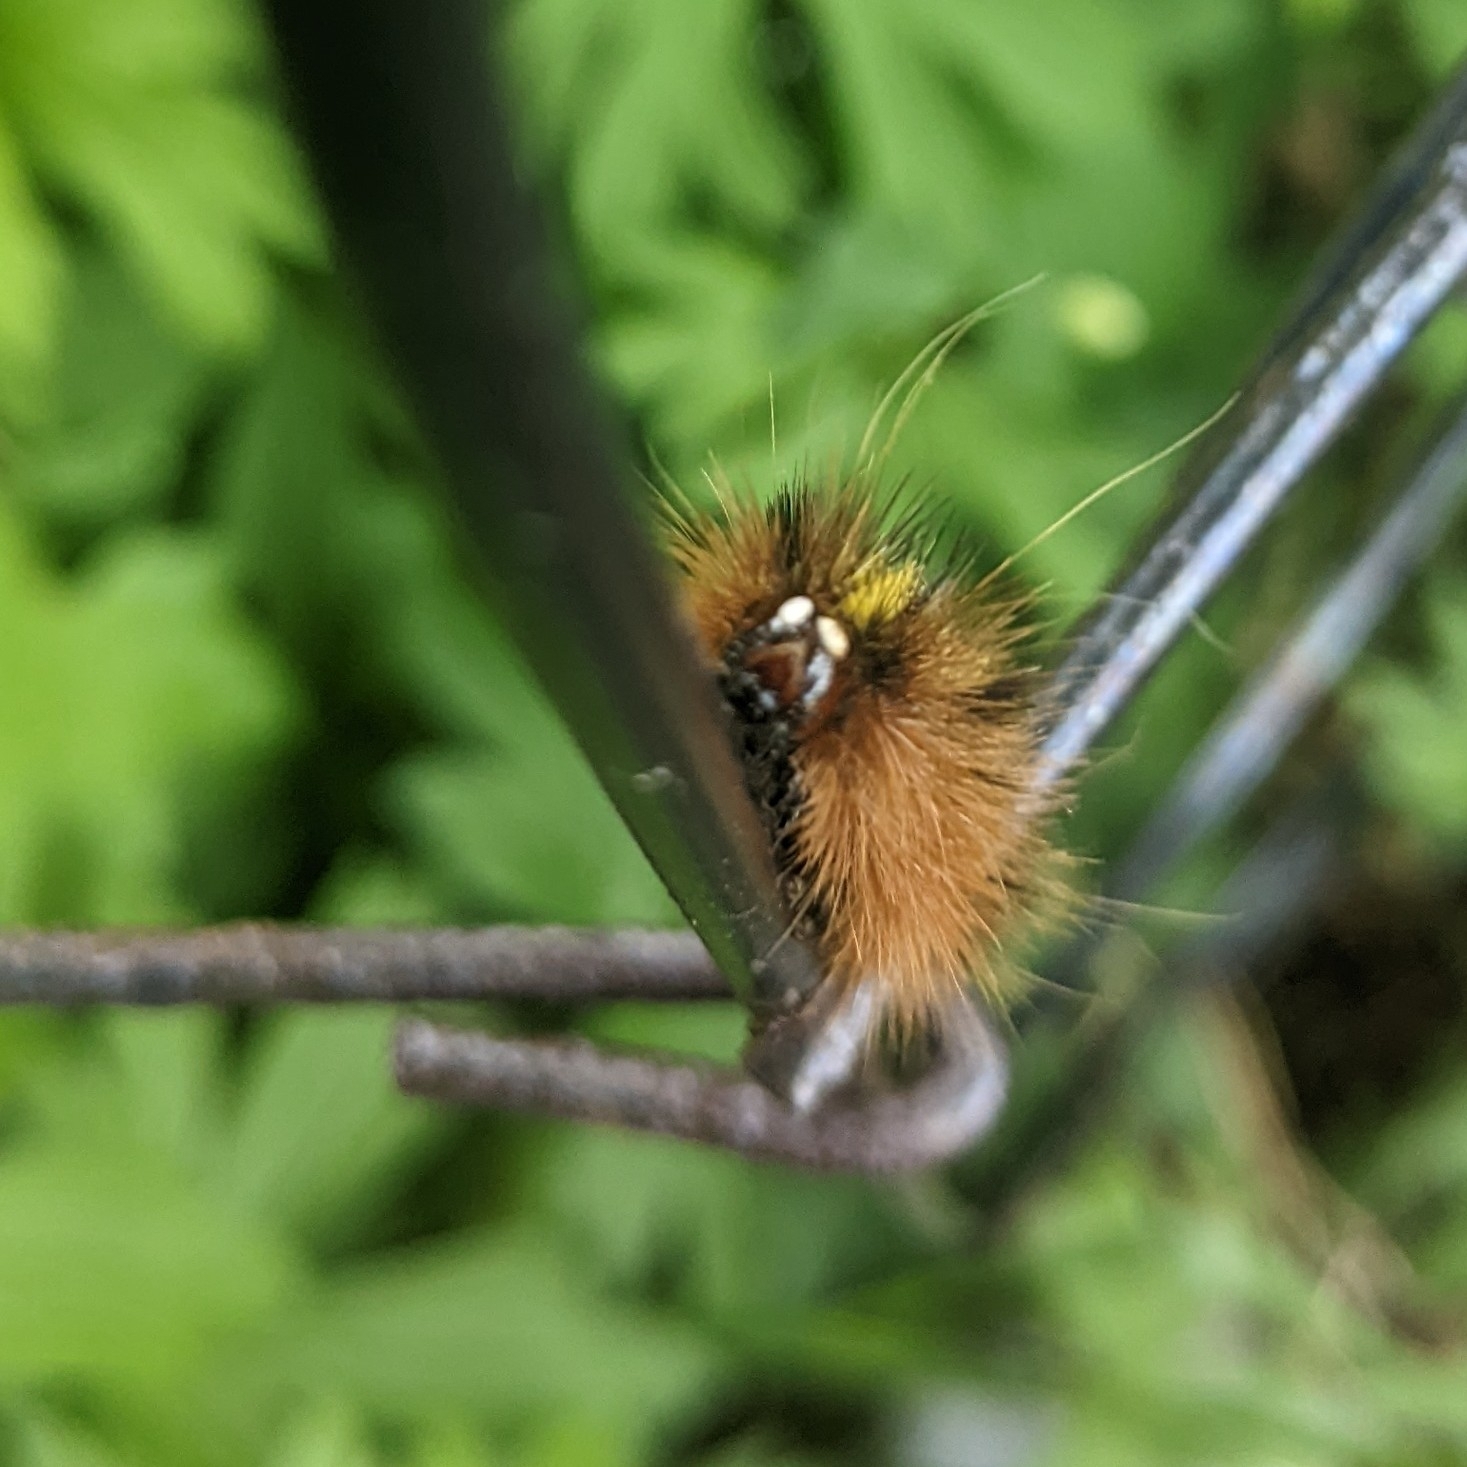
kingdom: Animalia
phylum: Arthropoda
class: Insecta
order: Lepidoptera
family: Erebidae
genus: Lophocampa
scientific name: Lophocampa argentata
